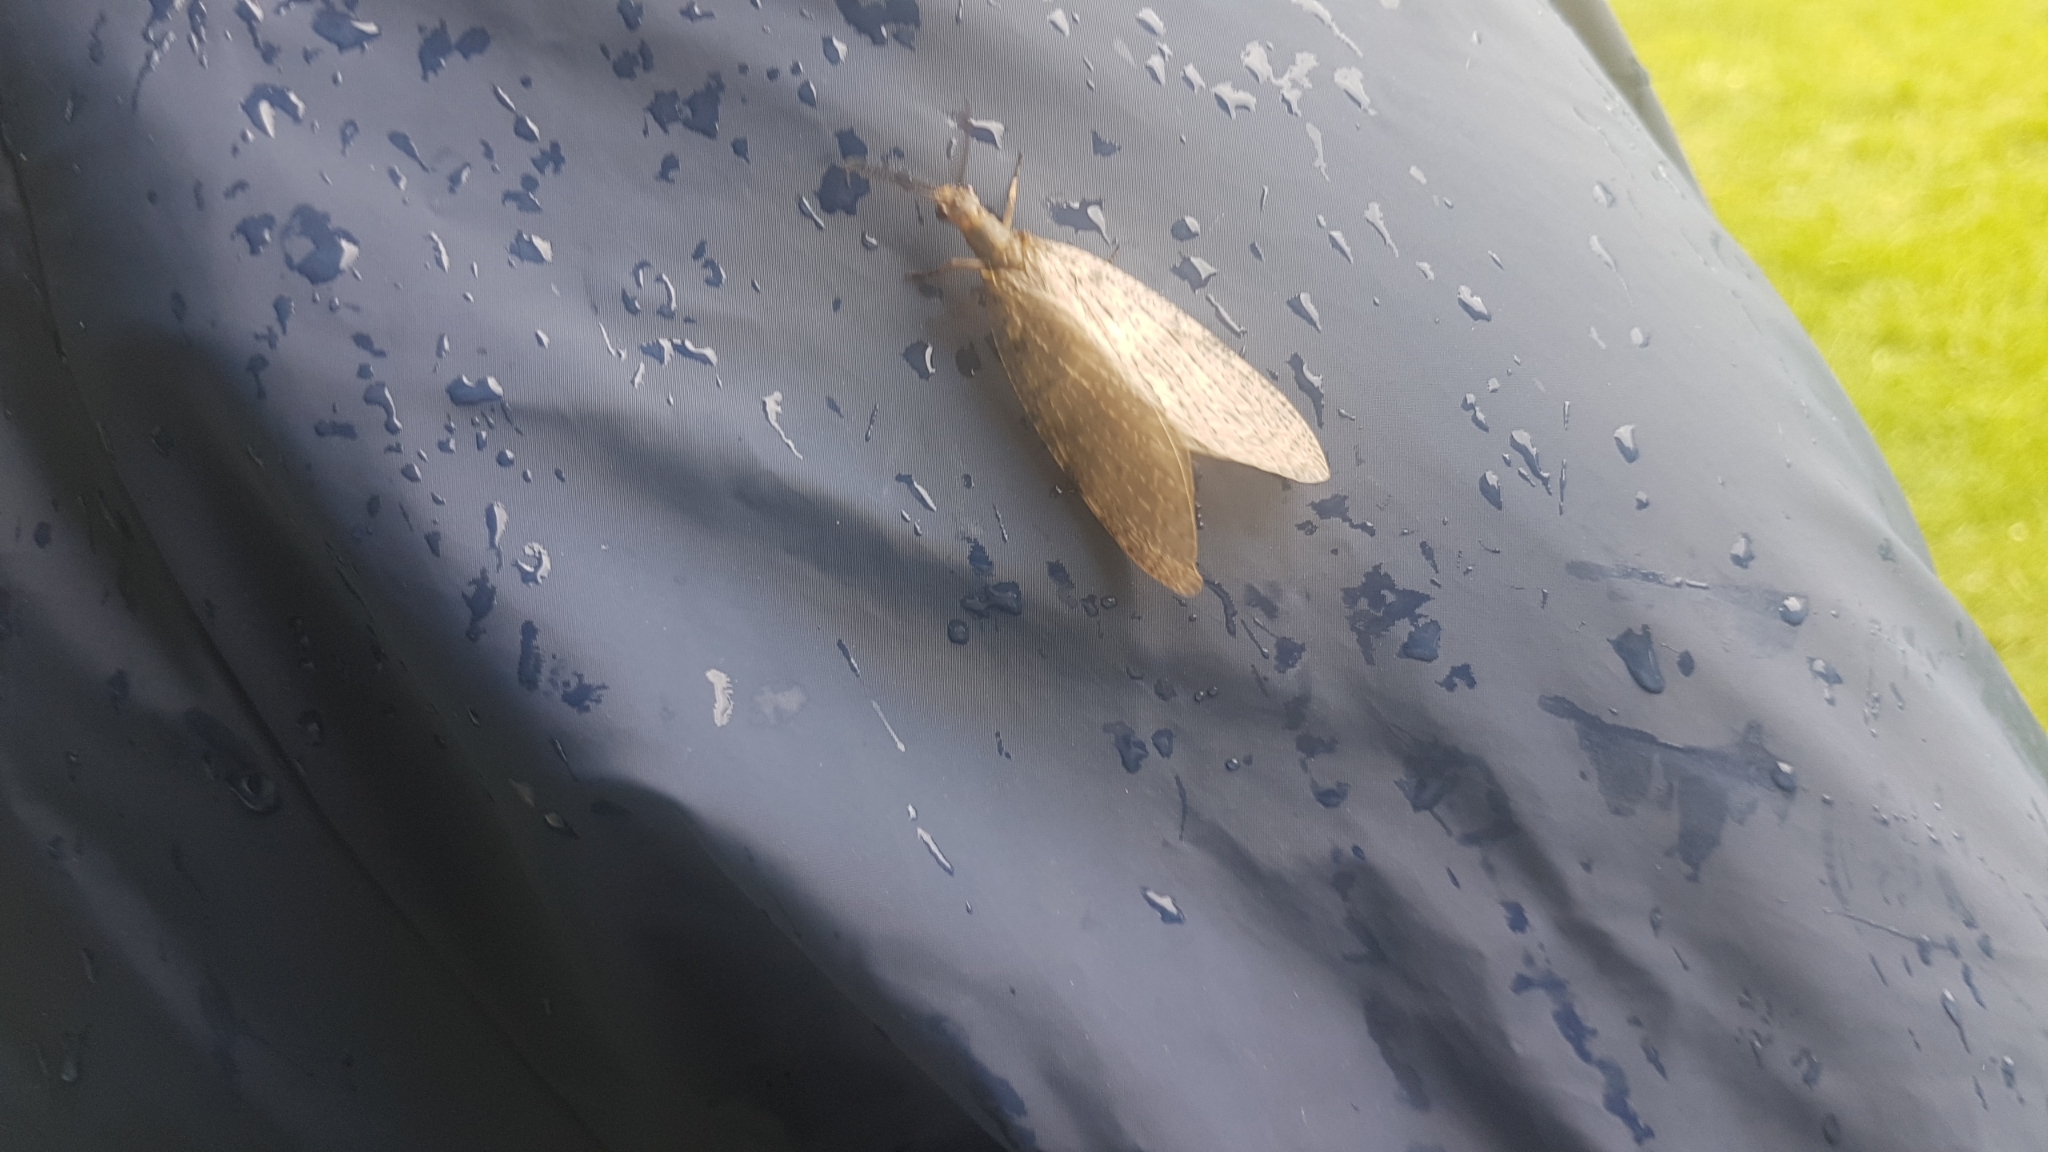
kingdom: Animalia
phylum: Arthropoda
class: Insecta
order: Megaloptera
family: Corydalidae
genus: Chauliodes
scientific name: Chauliodes pectinicornis
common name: Summer fishfly
